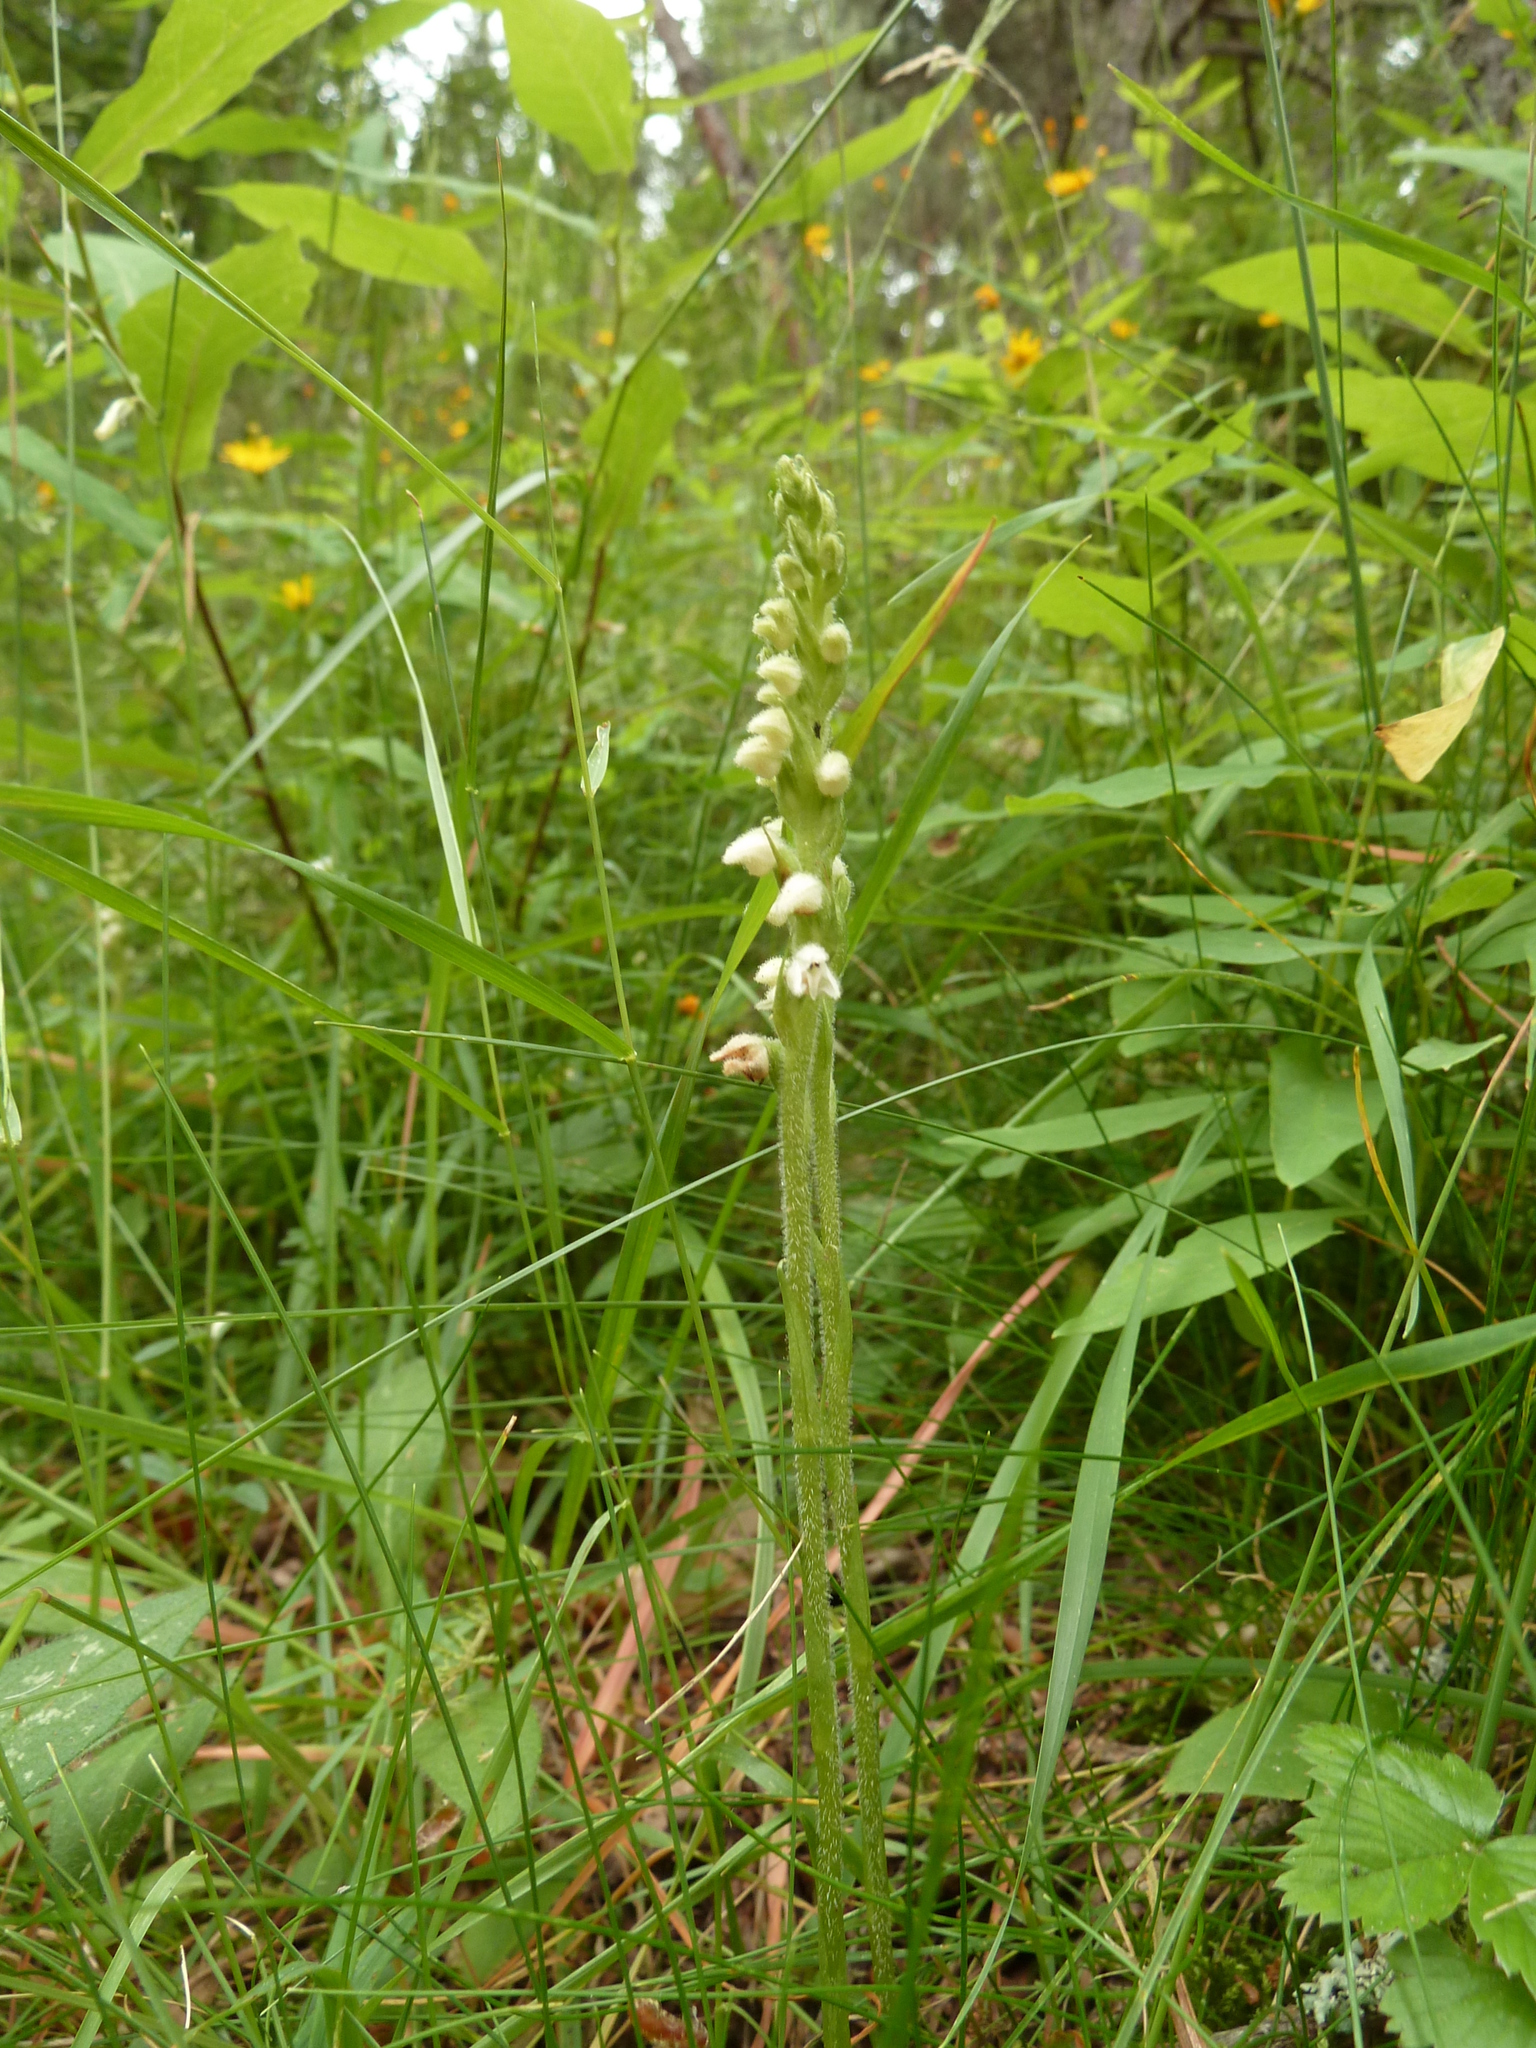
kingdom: Plantae
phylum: Tracheophyta
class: Liliopsida
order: Asparagales
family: Orchidaceae
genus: Goodyera
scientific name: Goodyera repens
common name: Creeping lady's-tresses
